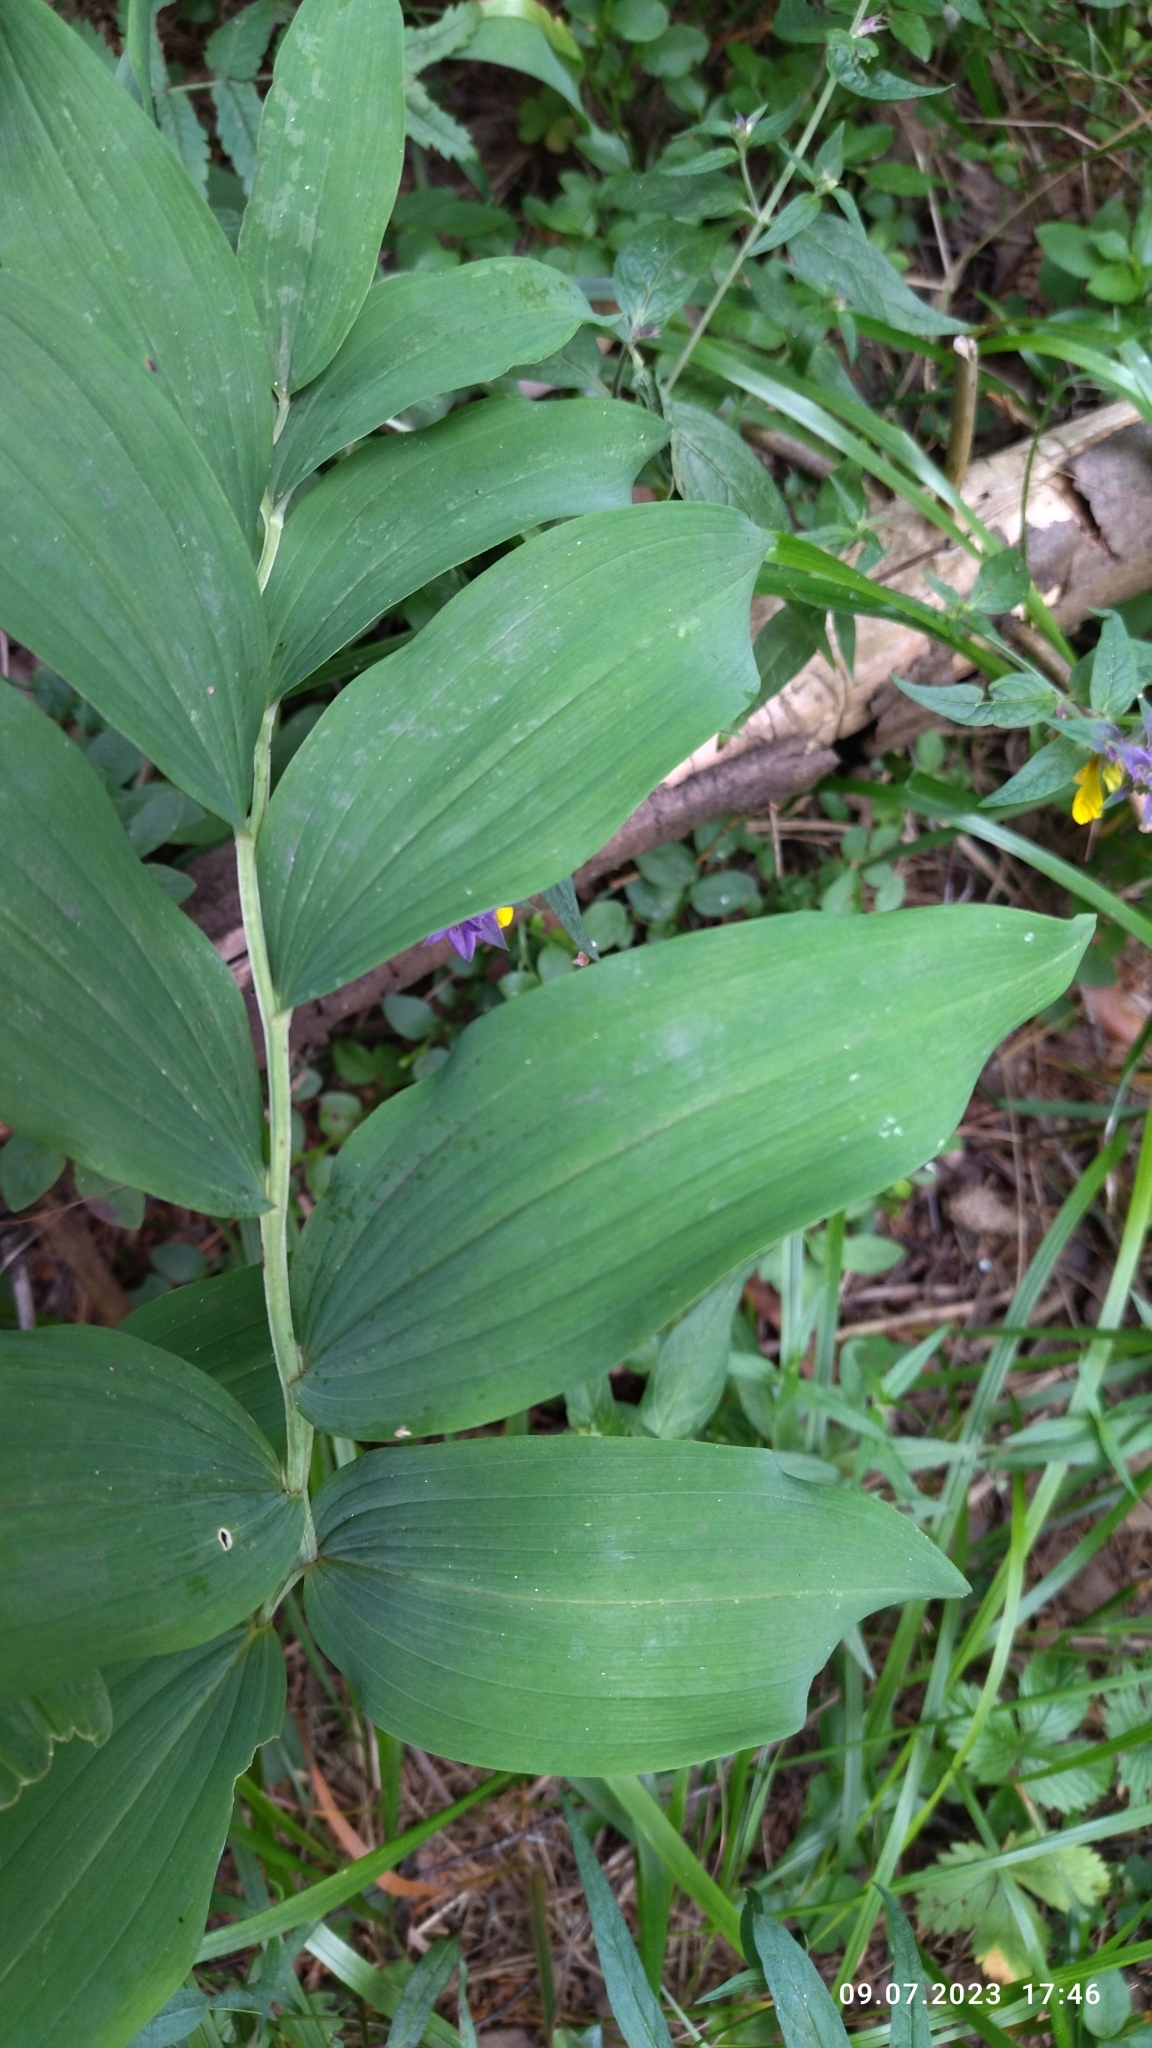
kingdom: Plantae
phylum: Tracheophyta
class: Liliopsida
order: Asparagales
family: Asparagaceae
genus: Polygonatum
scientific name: Polygonatum odoratum
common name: Angular solomon's-seal
